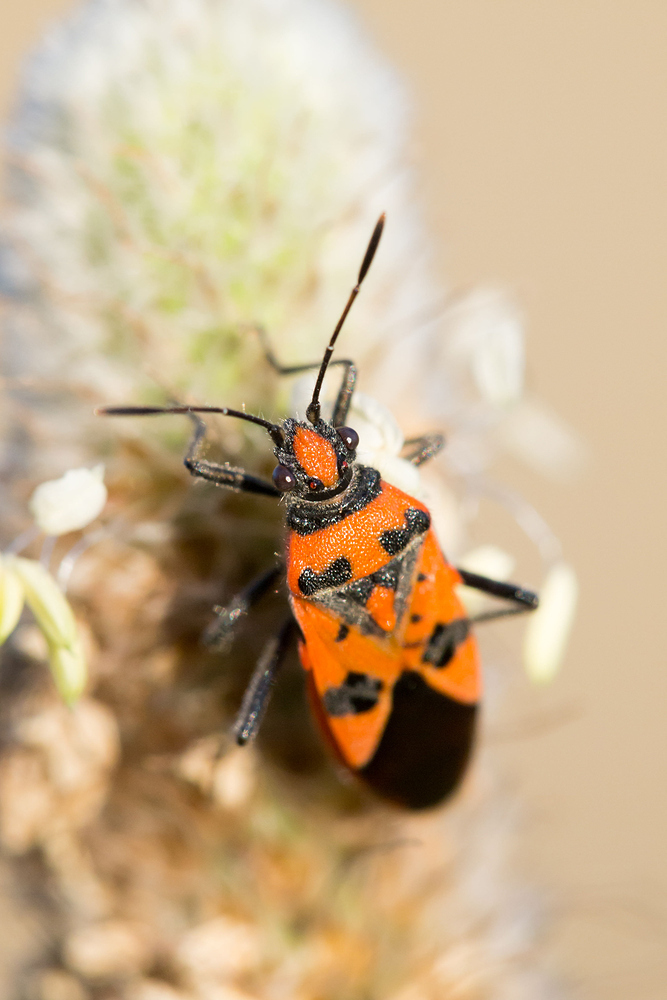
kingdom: Animalia
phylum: Arthropoda
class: Insecta
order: Hemiptera
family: Rhopalidae
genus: Corizus
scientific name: Corizus hyoscyami
